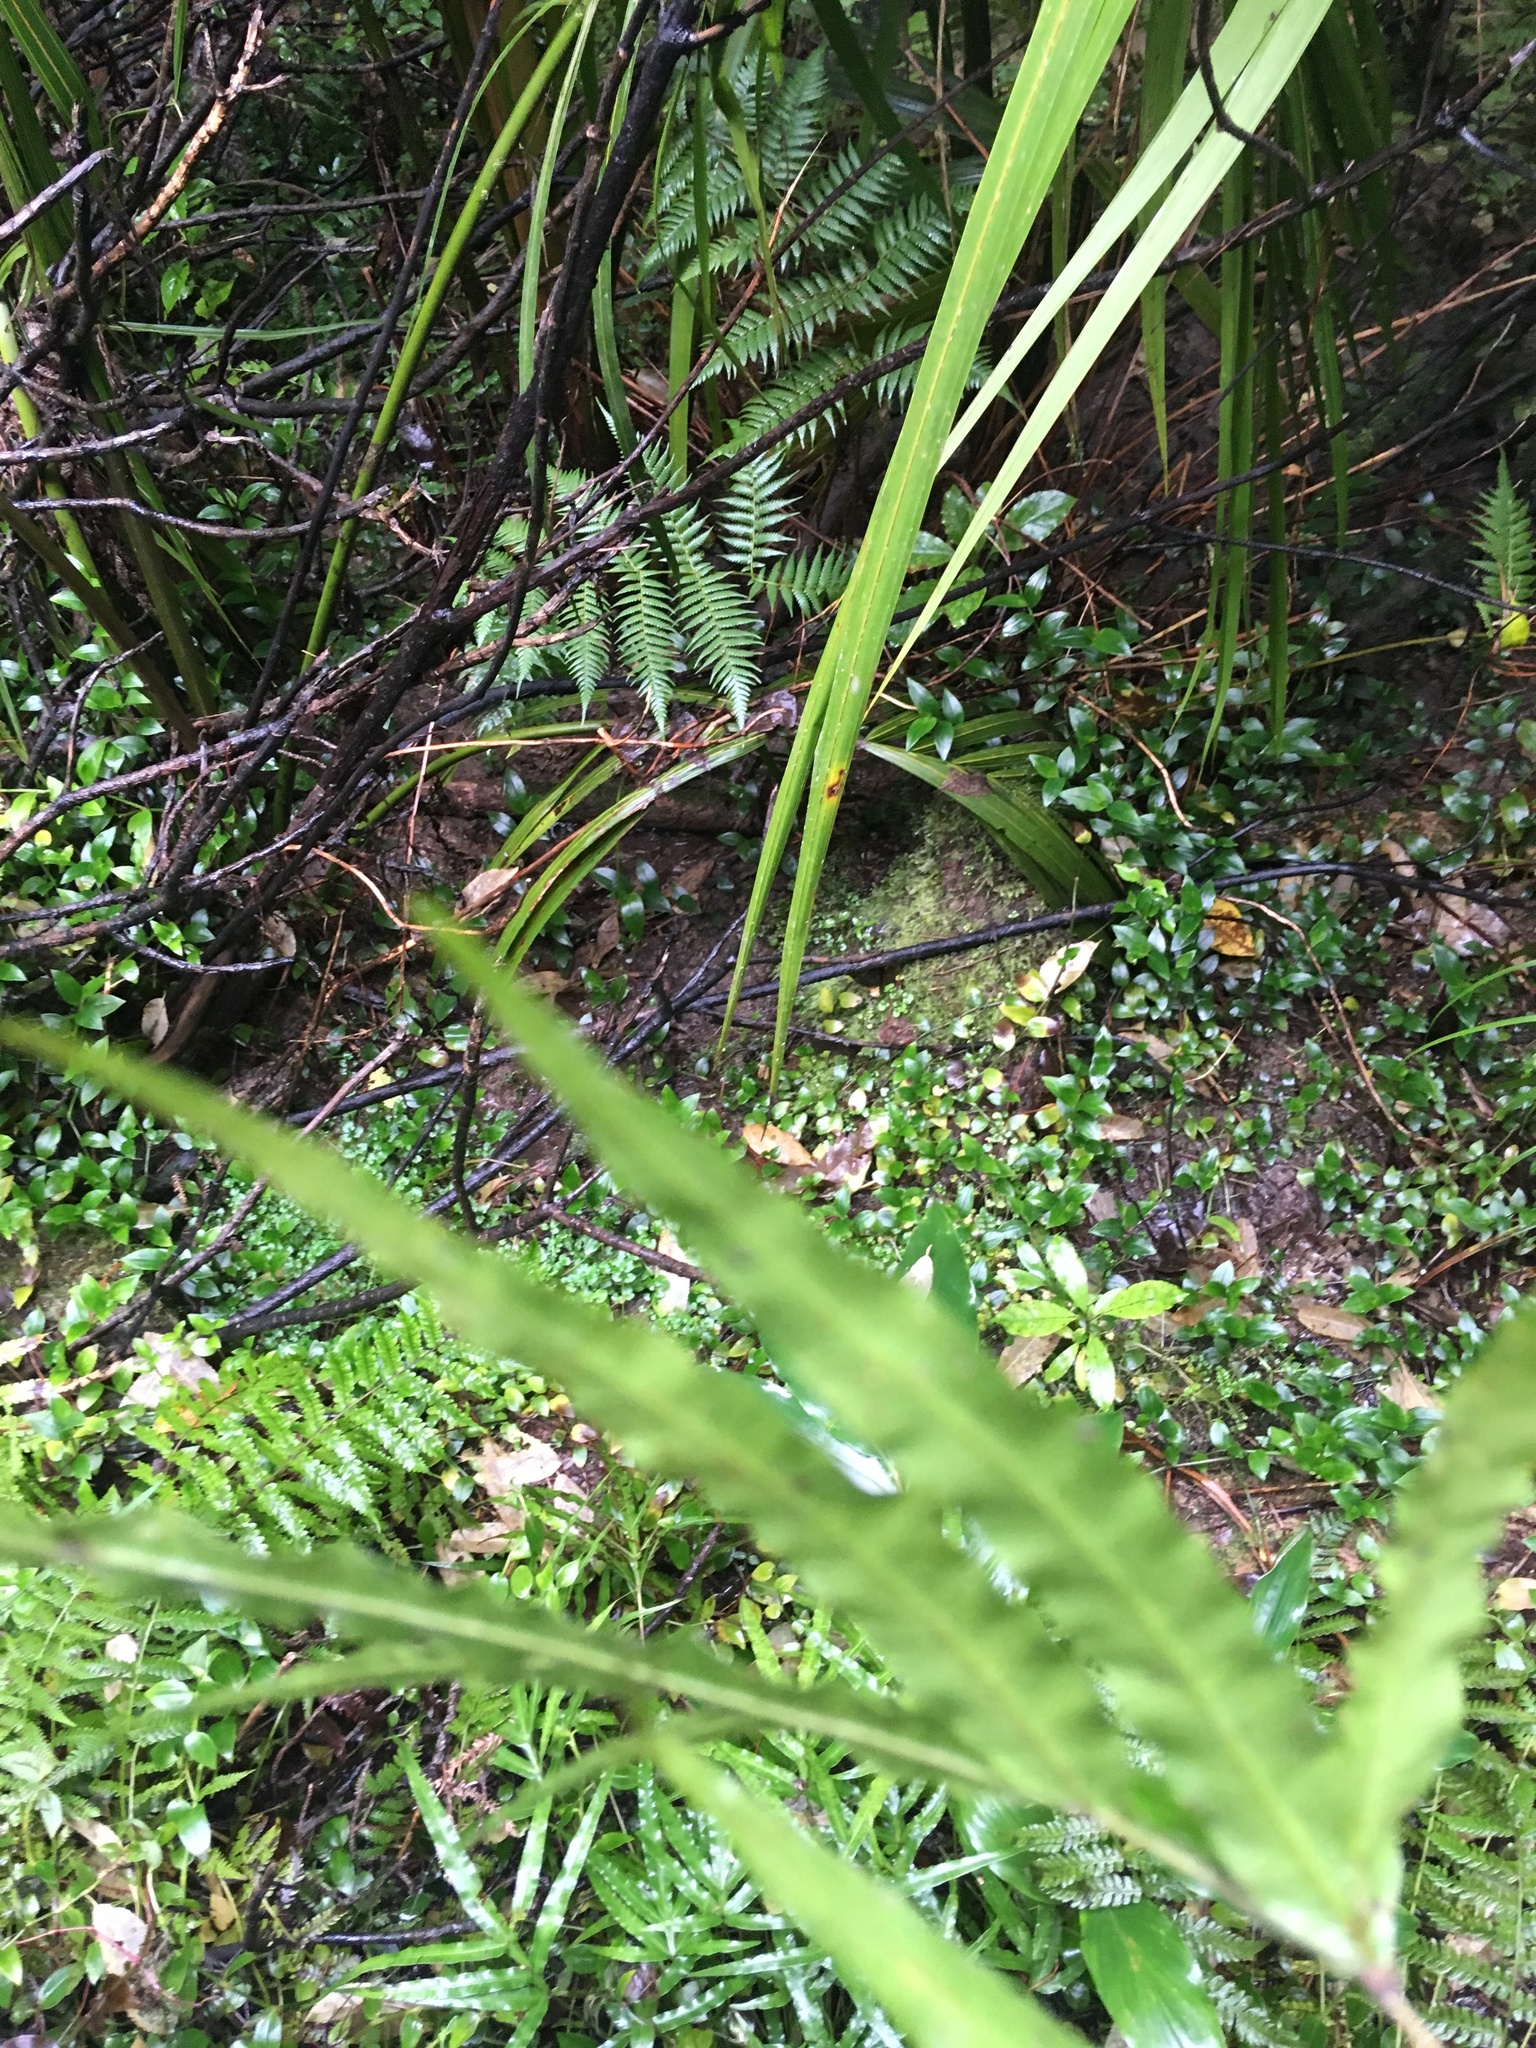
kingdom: Plantae
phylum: Tracheophyta
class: Liliopsida
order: Commelinales
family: Commelinaceae
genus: Tradescantia
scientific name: Tradescantia fluminensis
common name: Wandering-jew
